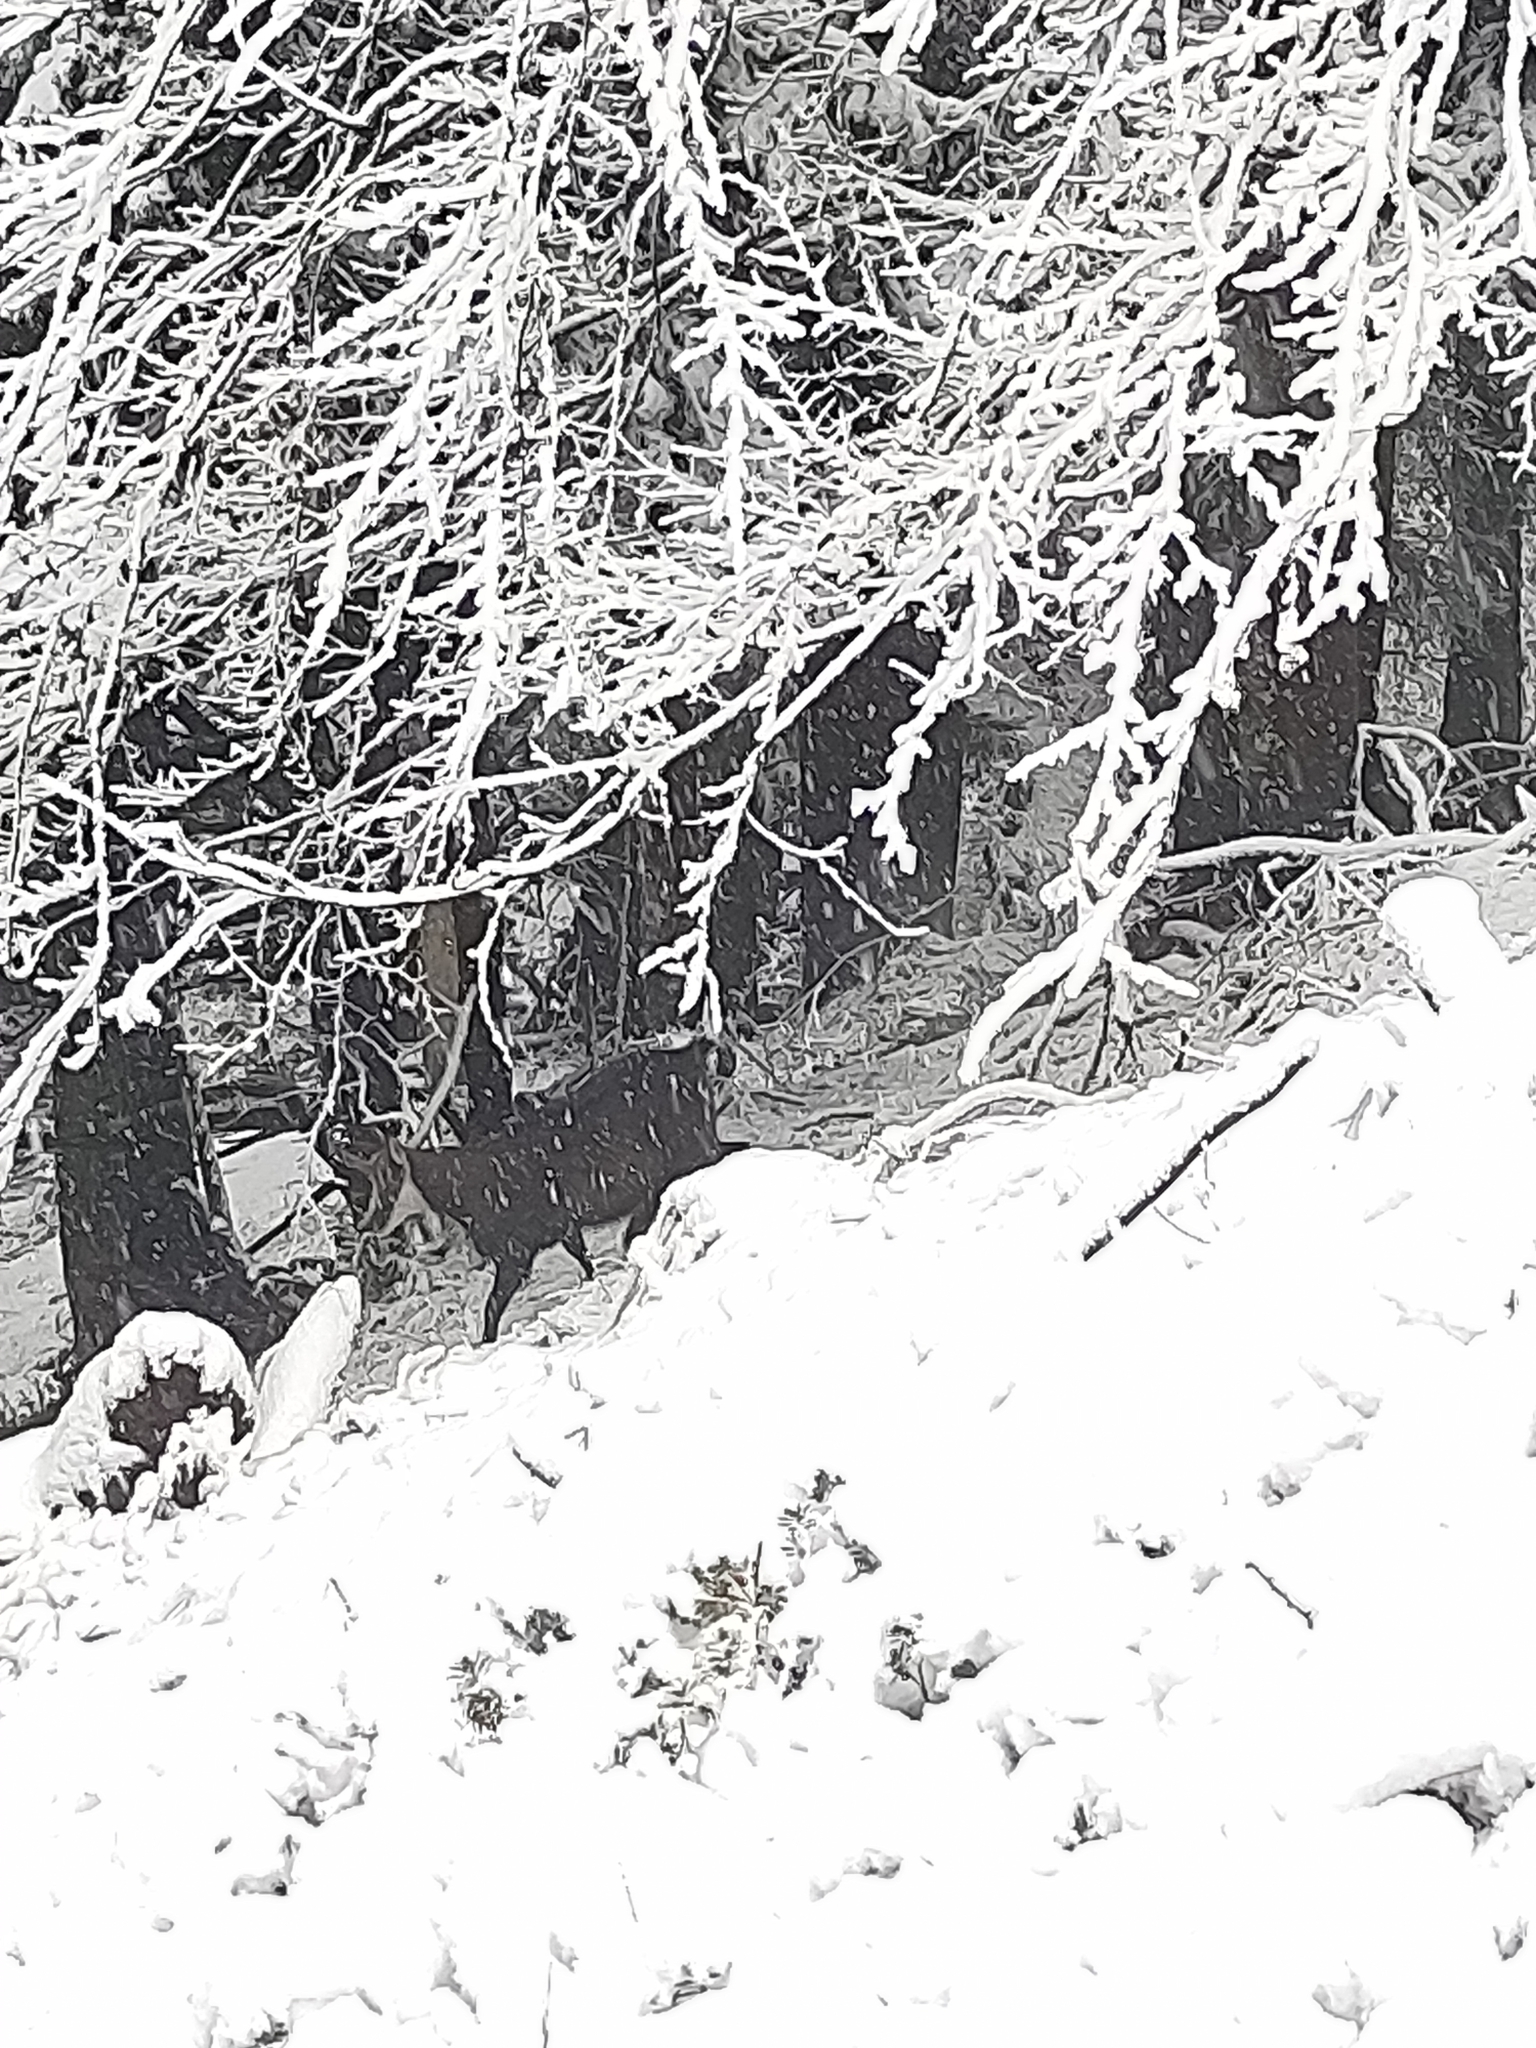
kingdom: Animalia
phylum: Chordata
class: Mammalia
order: Artiodactyla
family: Bovidae
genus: Rupicapra
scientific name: Rupicapra rupicapra
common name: Chamois
